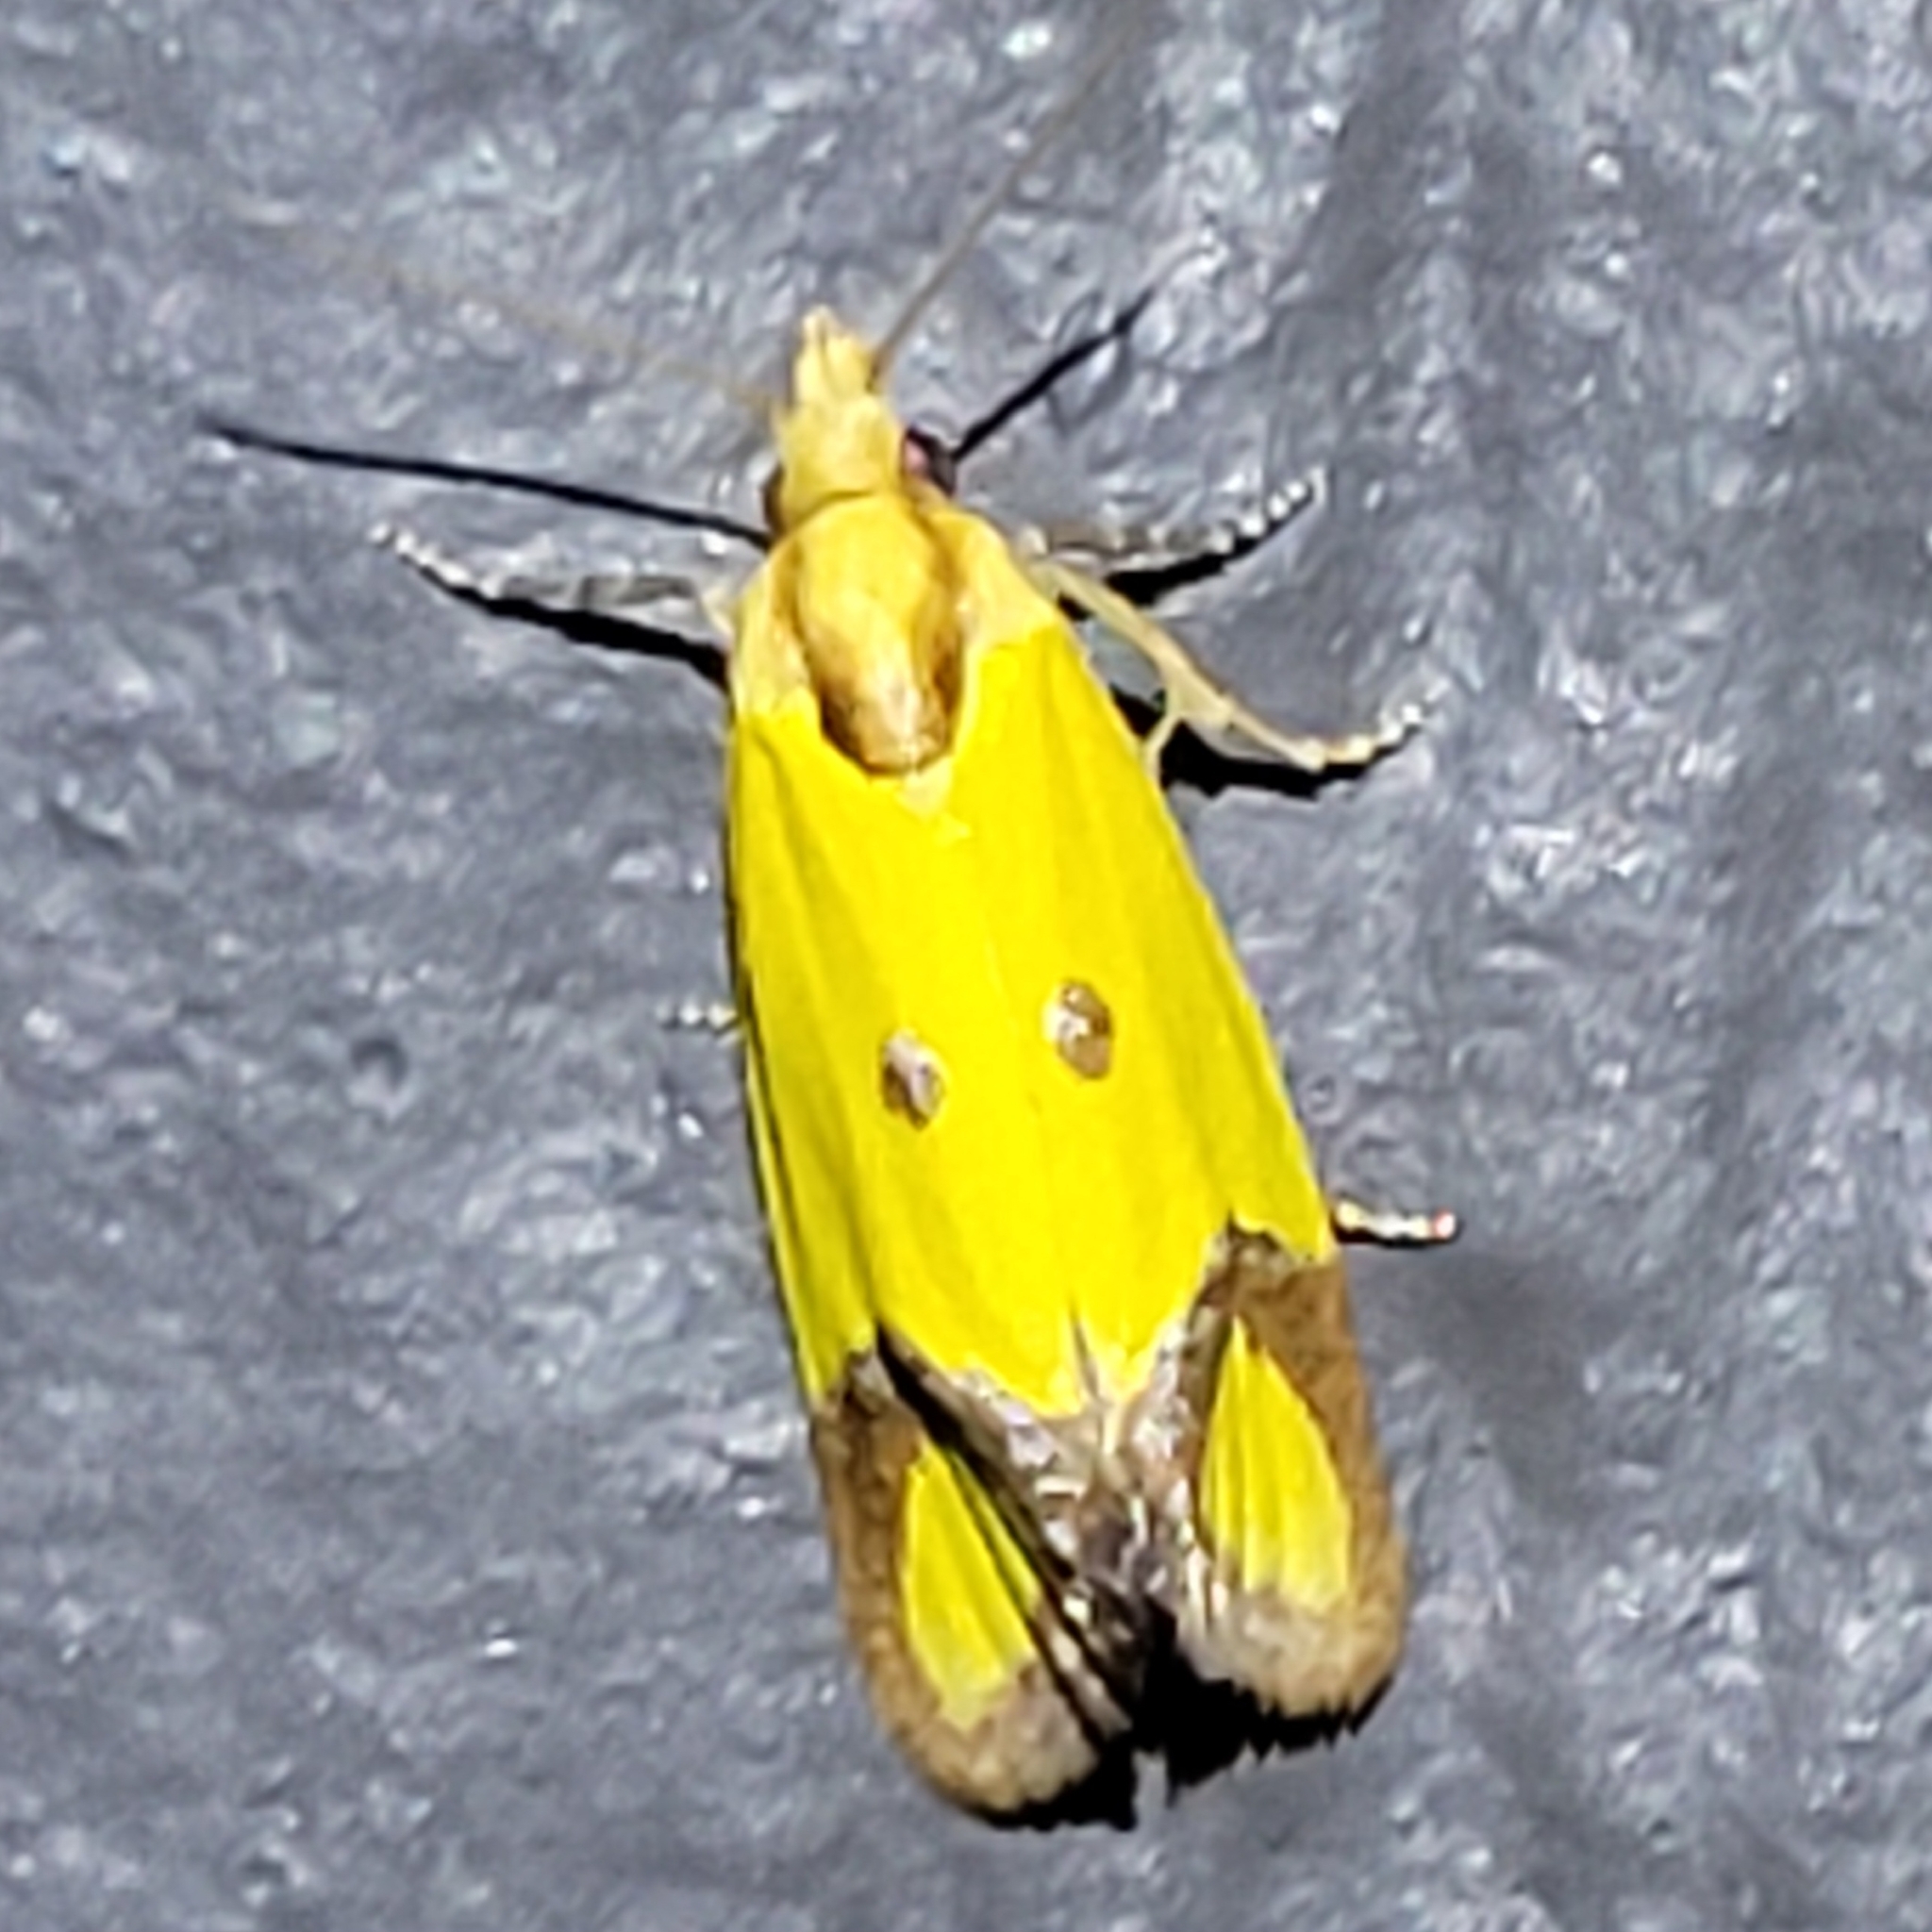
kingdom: Animalia
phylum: Arthropoda
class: Insecta
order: Lepidoptera
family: Tortricidae
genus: Agapeta
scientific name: Agapeta zoegana
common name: Sulfur knapweed root moth
